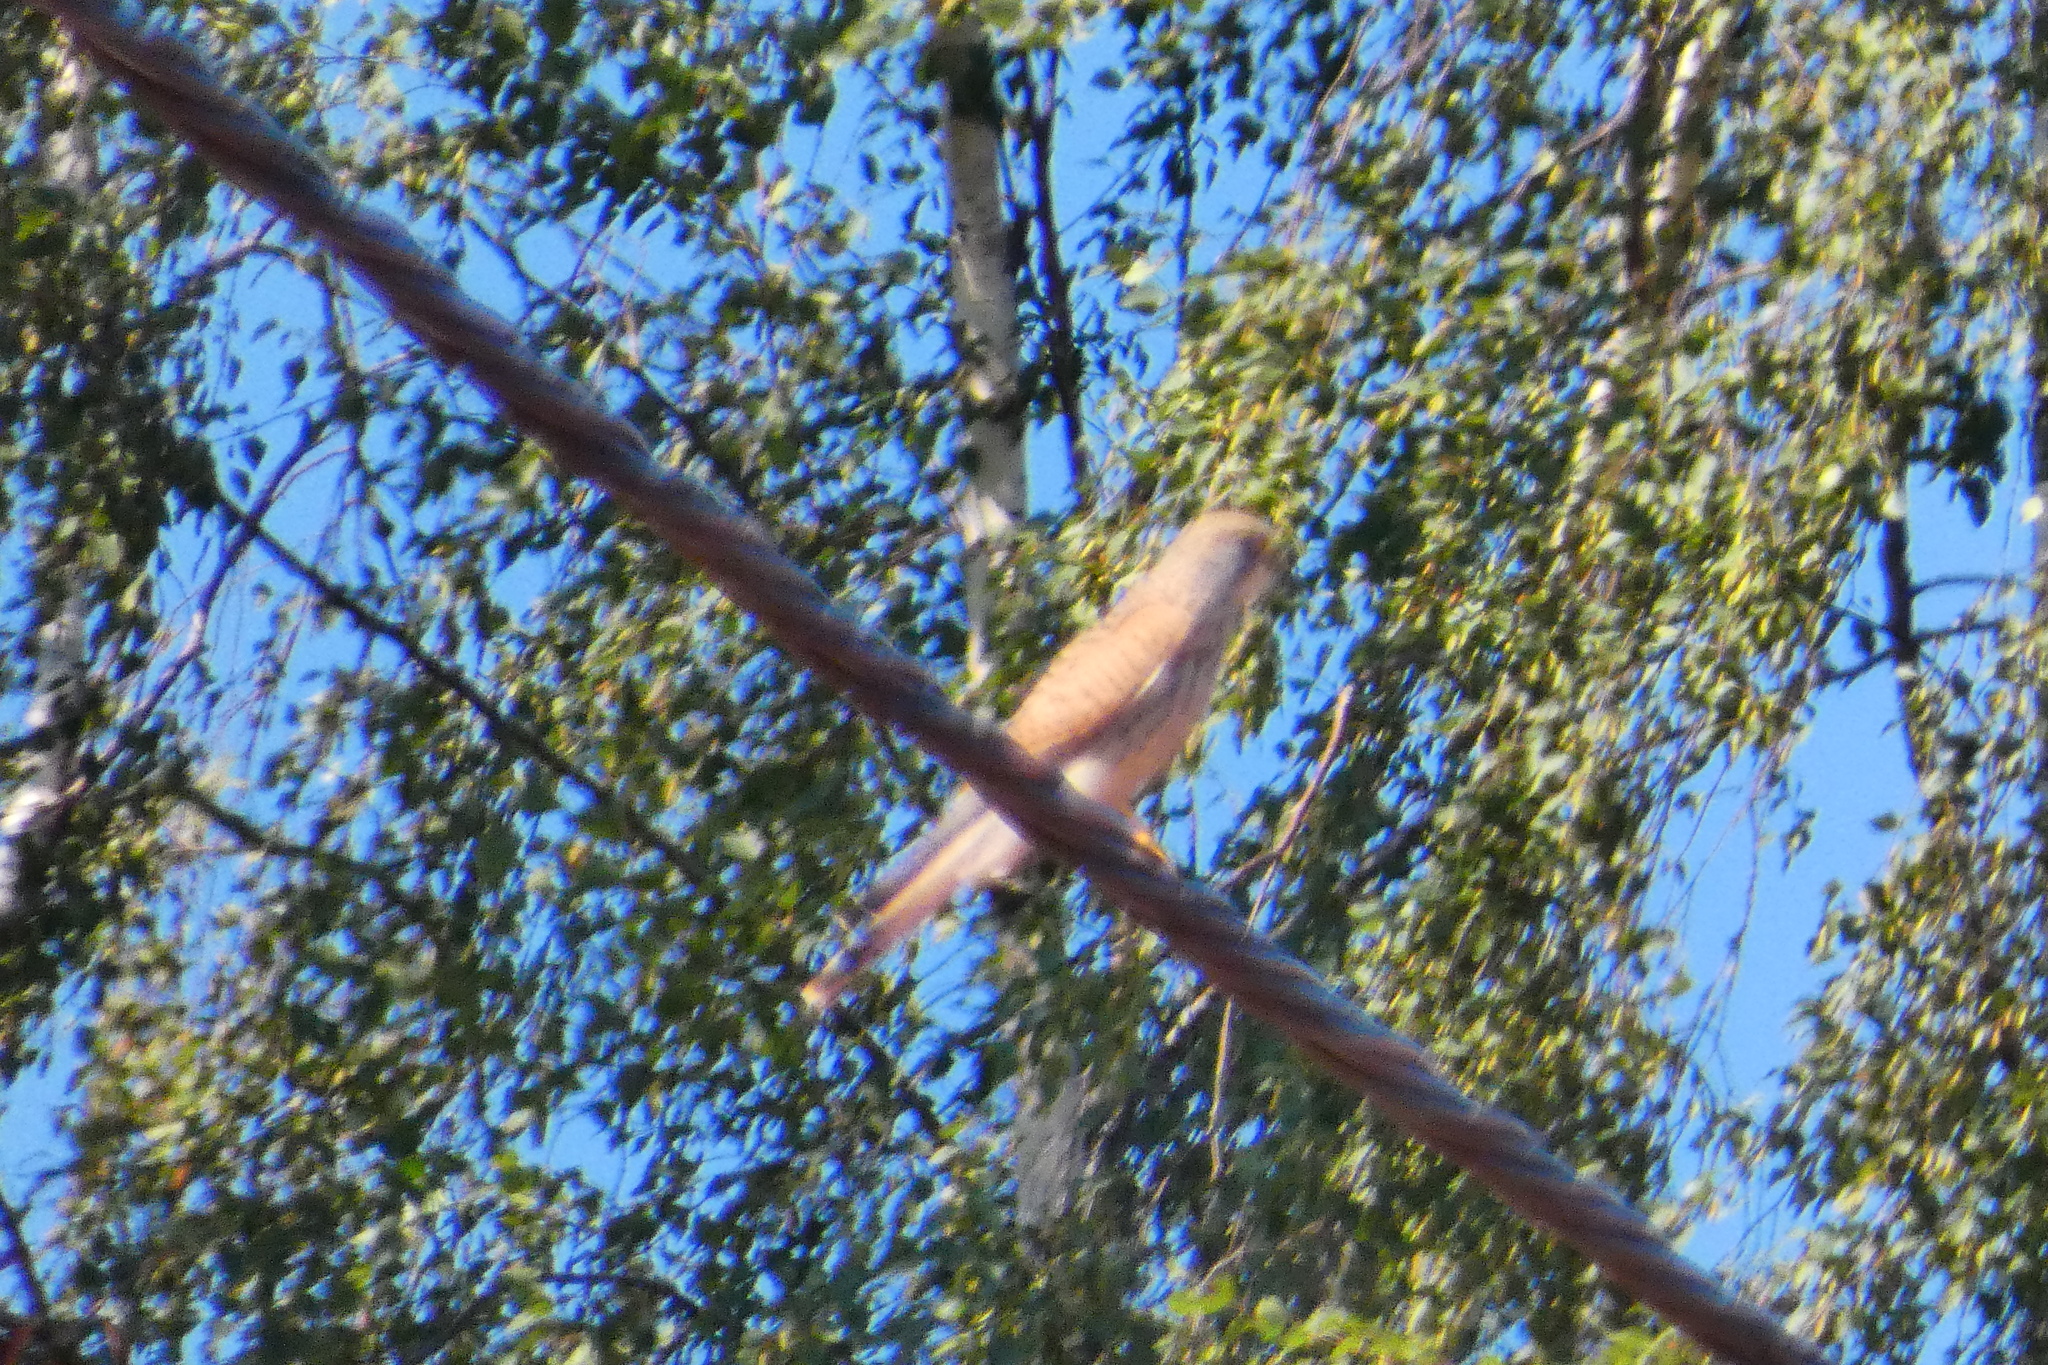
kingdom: Animalia
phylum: Chordata
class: Aves
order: Falconiformes
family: Falconidae
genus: Falco
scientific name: Falco tinnunculus
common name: Common kestrel
